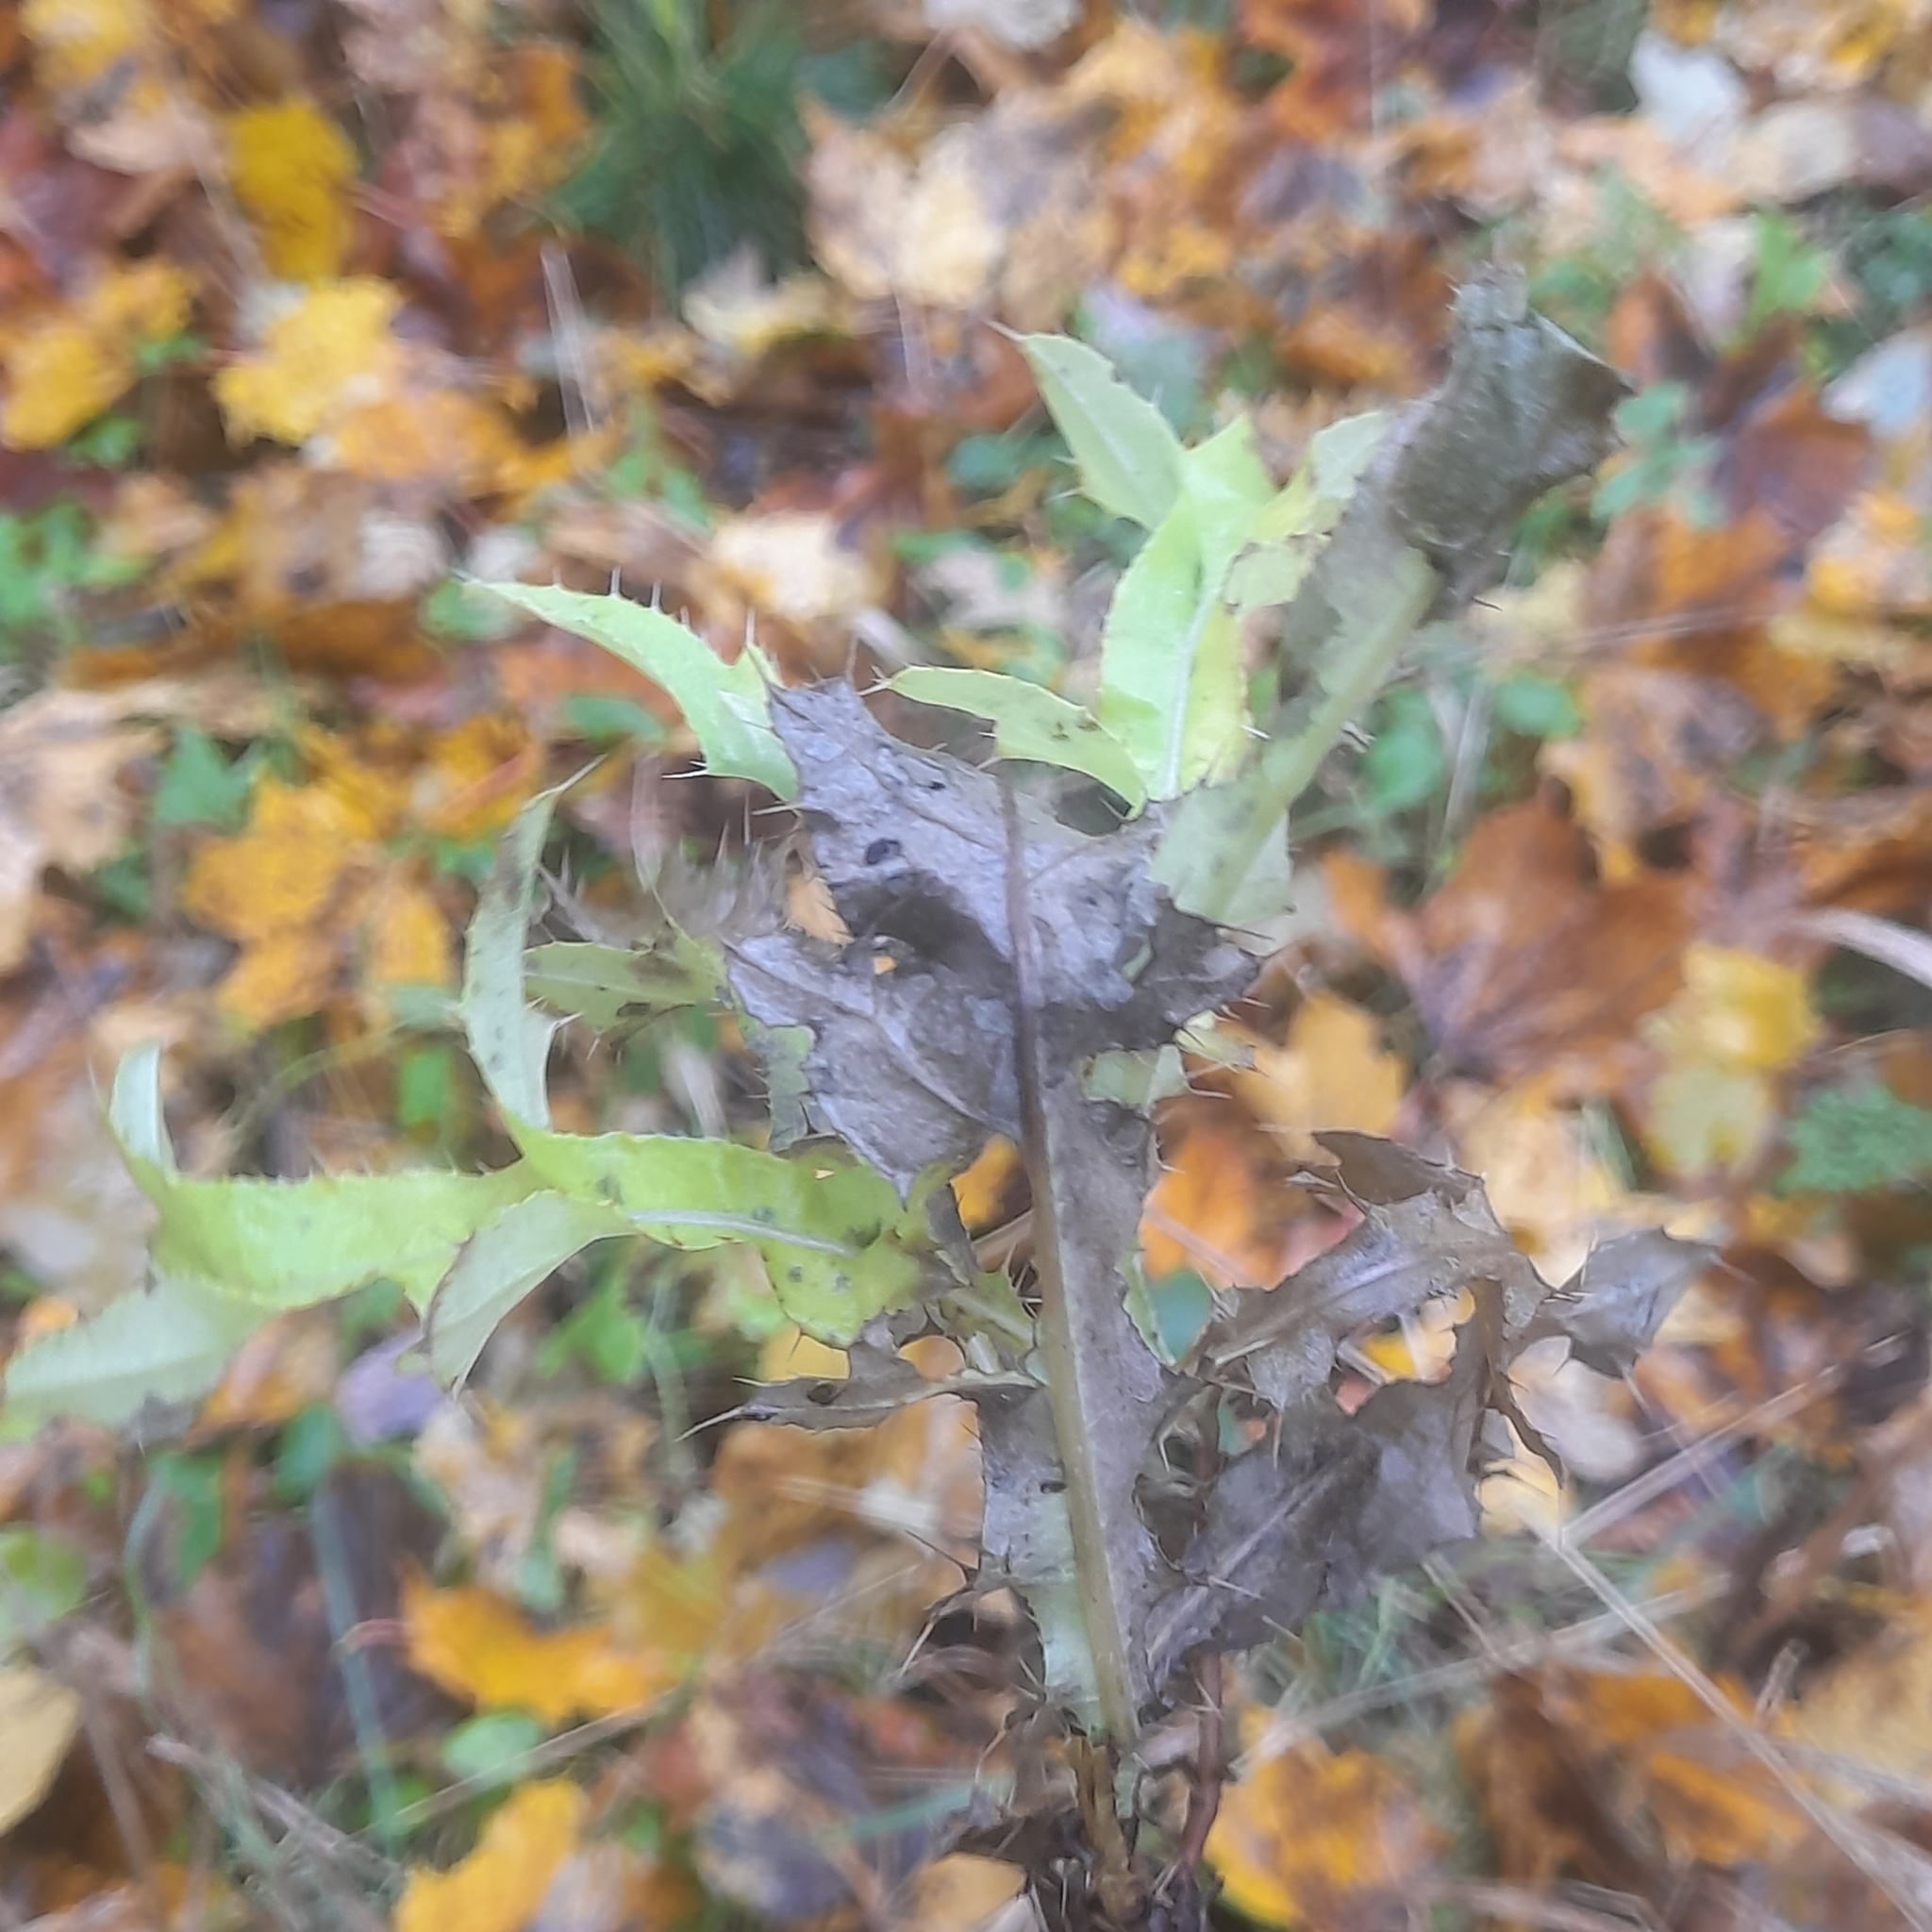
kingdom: Plantae
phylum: Tracheophyta
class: Magnoliopsida
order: Asterales
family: Asteraceae
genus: Cirsium
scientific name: Cirsium arvense
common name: Creeping thistle
